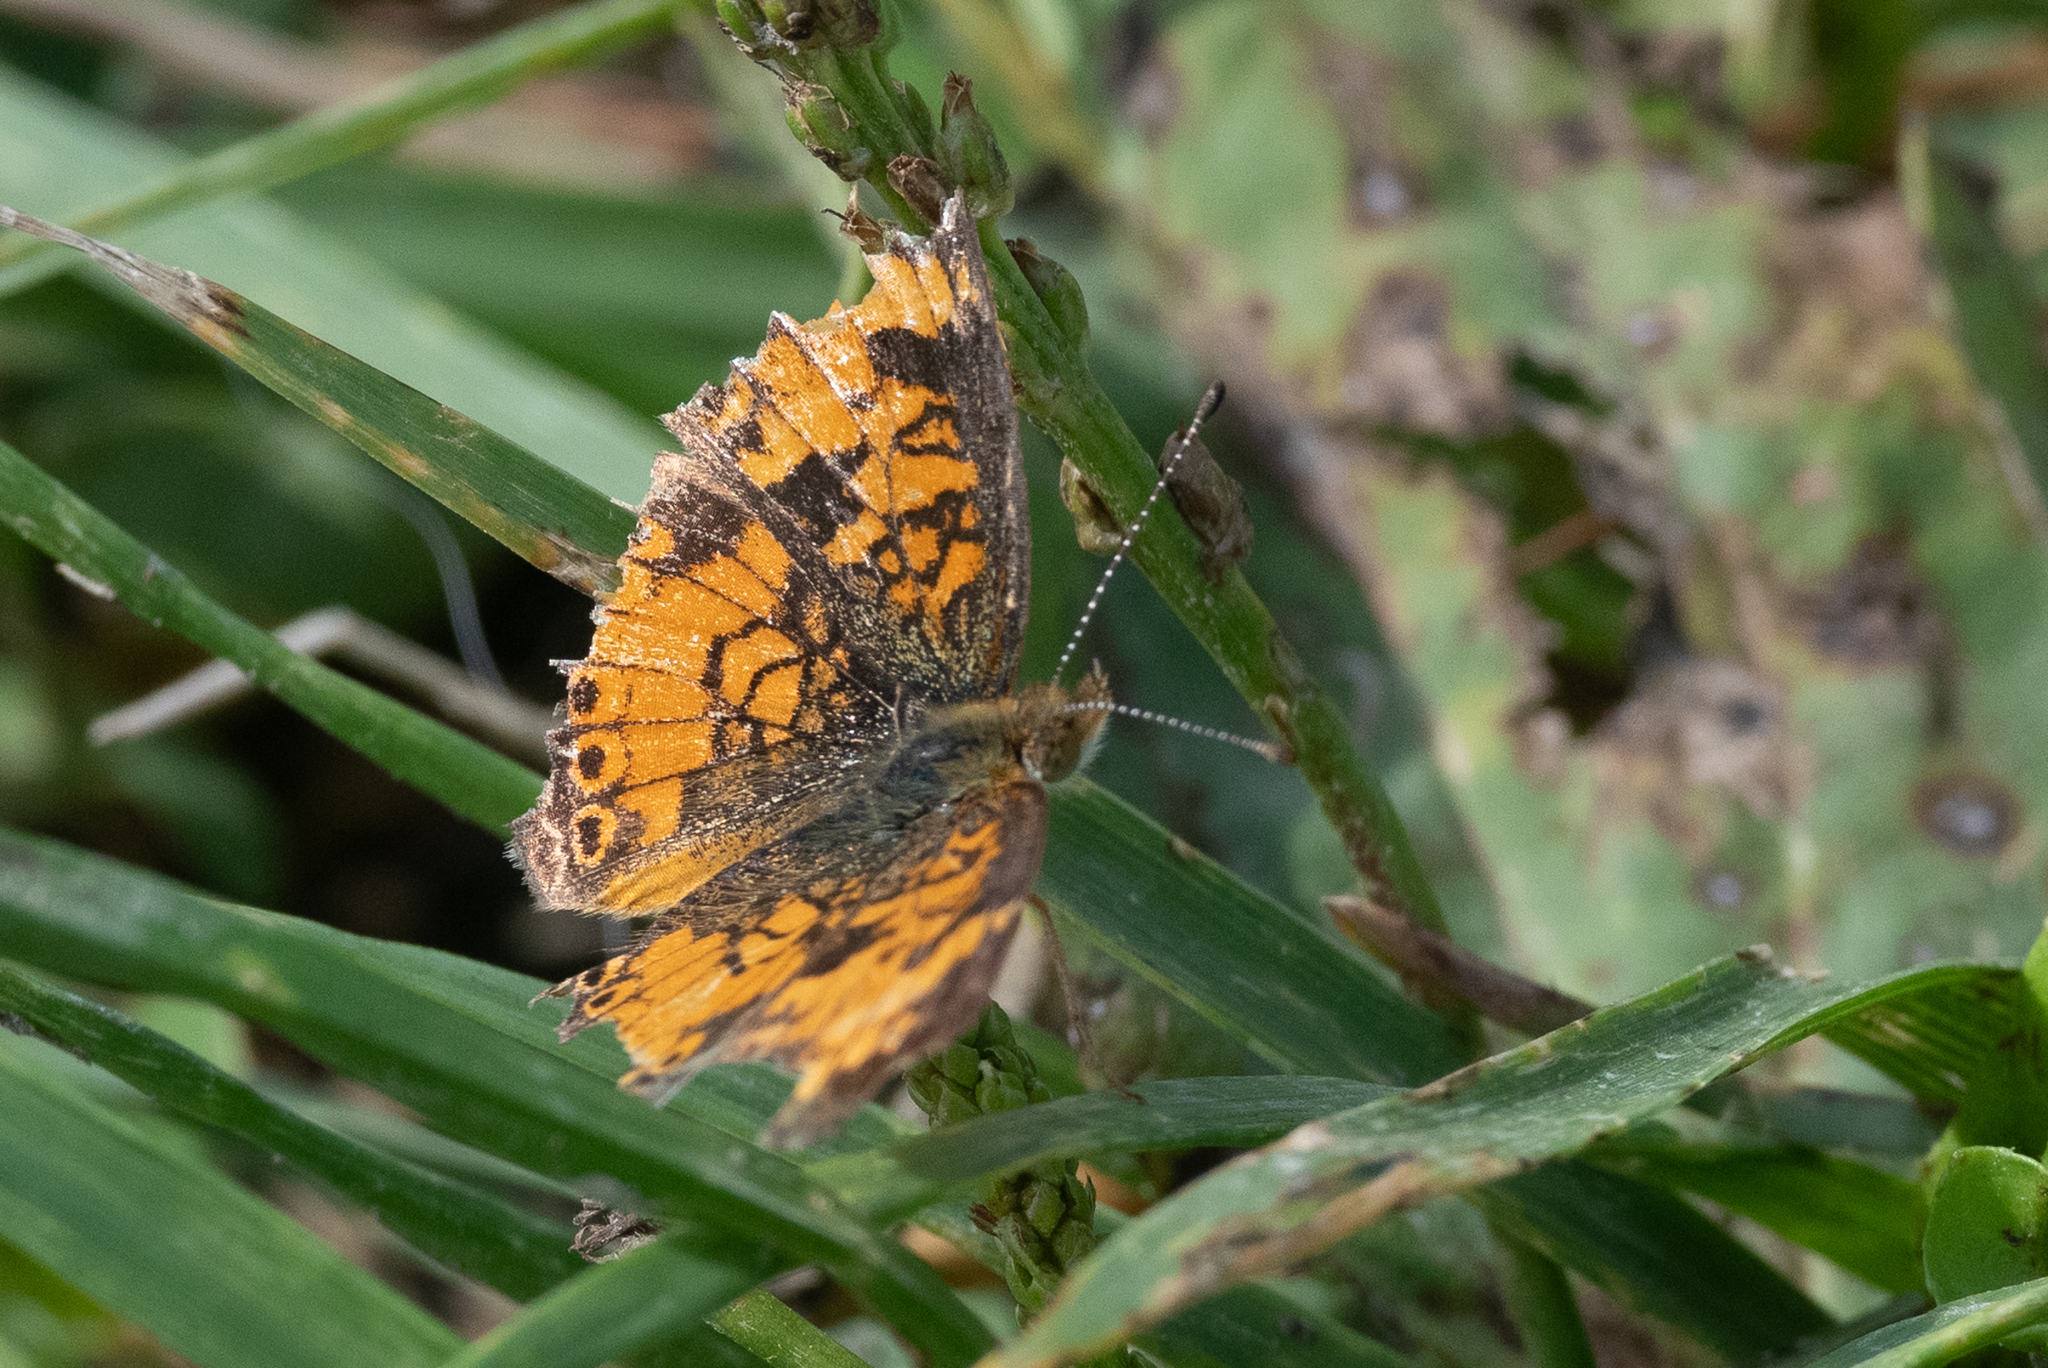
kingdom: Animalia
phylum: Arthropoda
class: Insecta
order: Lepidoptera
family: Nymphalidae
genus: Phyciodes
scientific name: Phyciodes tharos
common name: Pearl crescent
